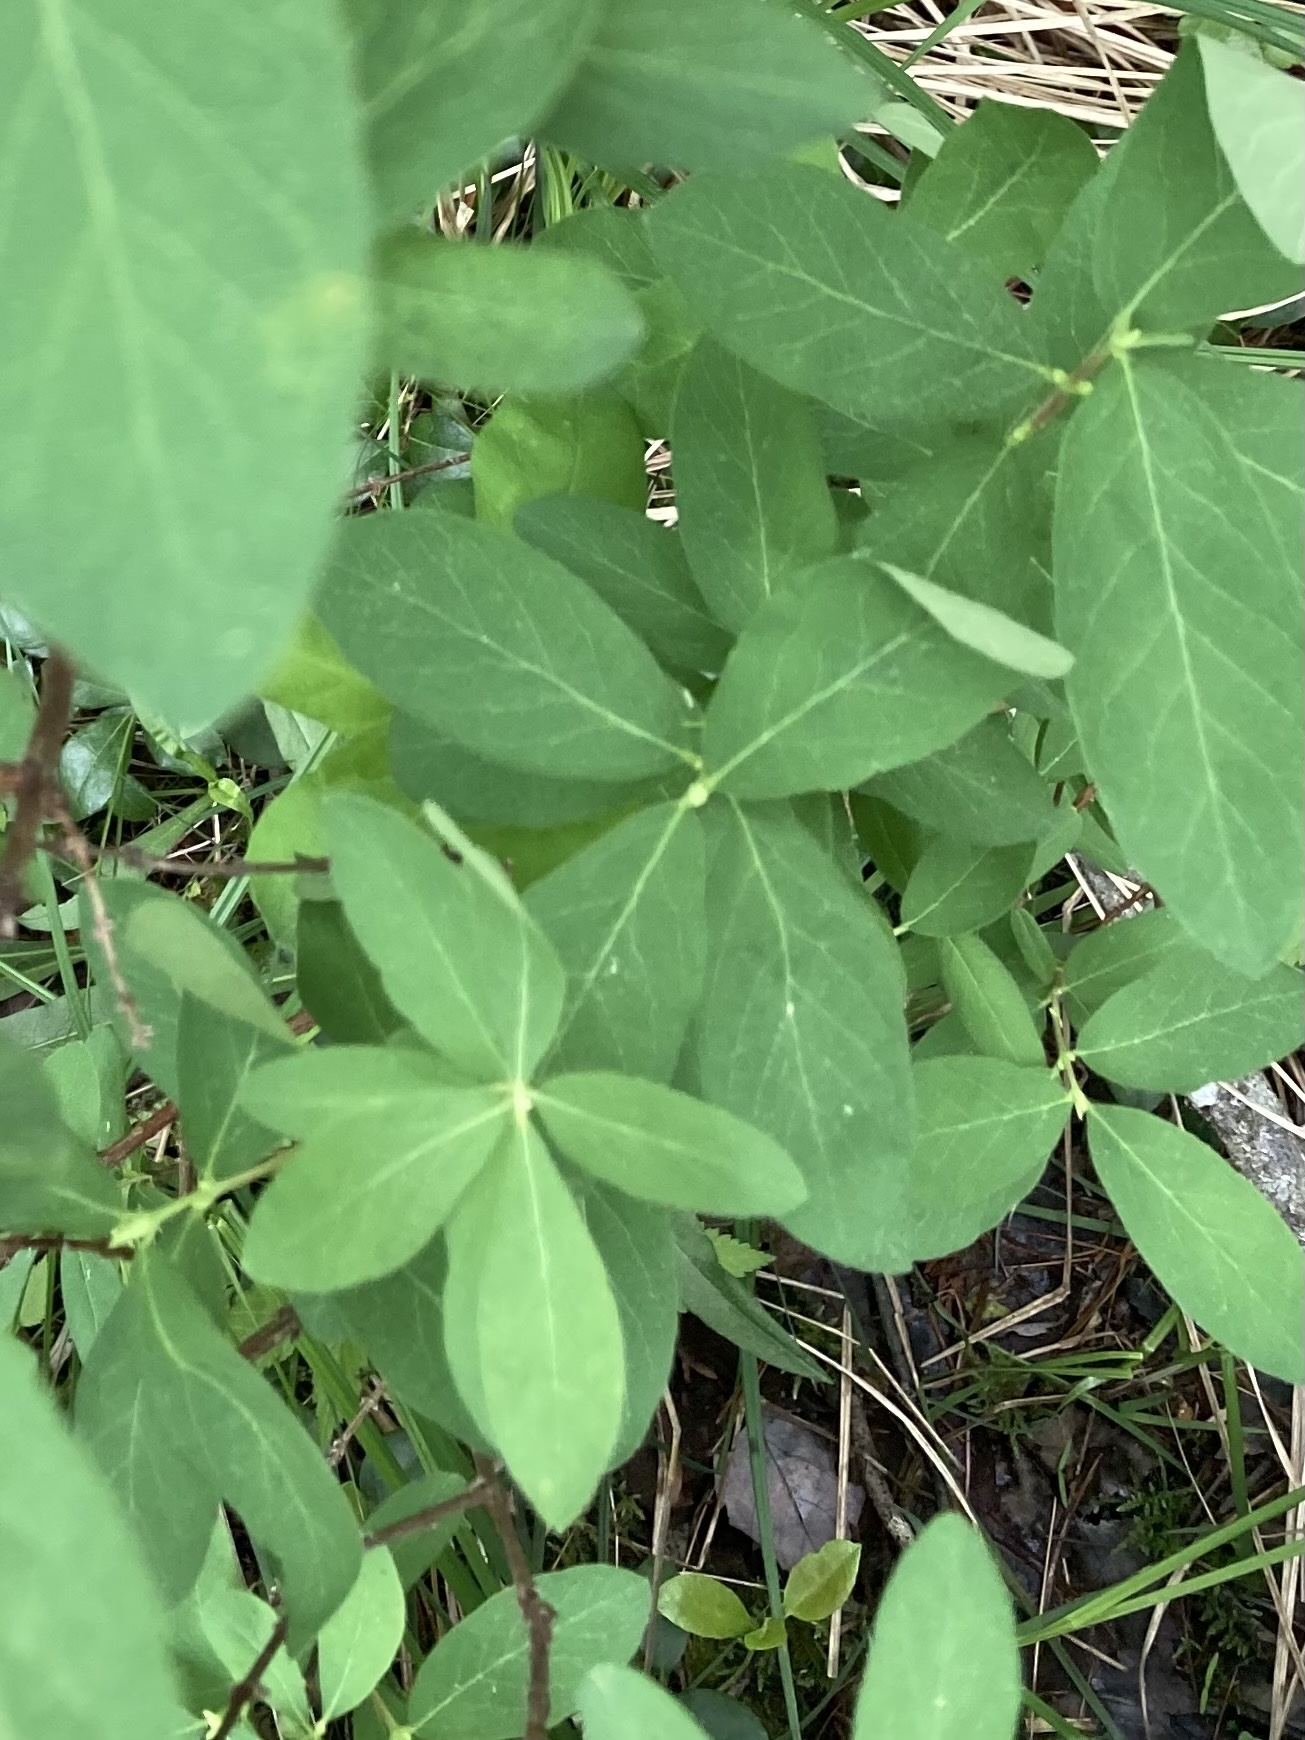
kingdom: Plantae
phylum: Tracheophyta
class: Magnoliopsida
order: Dipsacales
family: Caprifoliaceae
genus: Lonicera
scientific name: Lonicera villosa
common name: Mountain fly-honeysuckle
